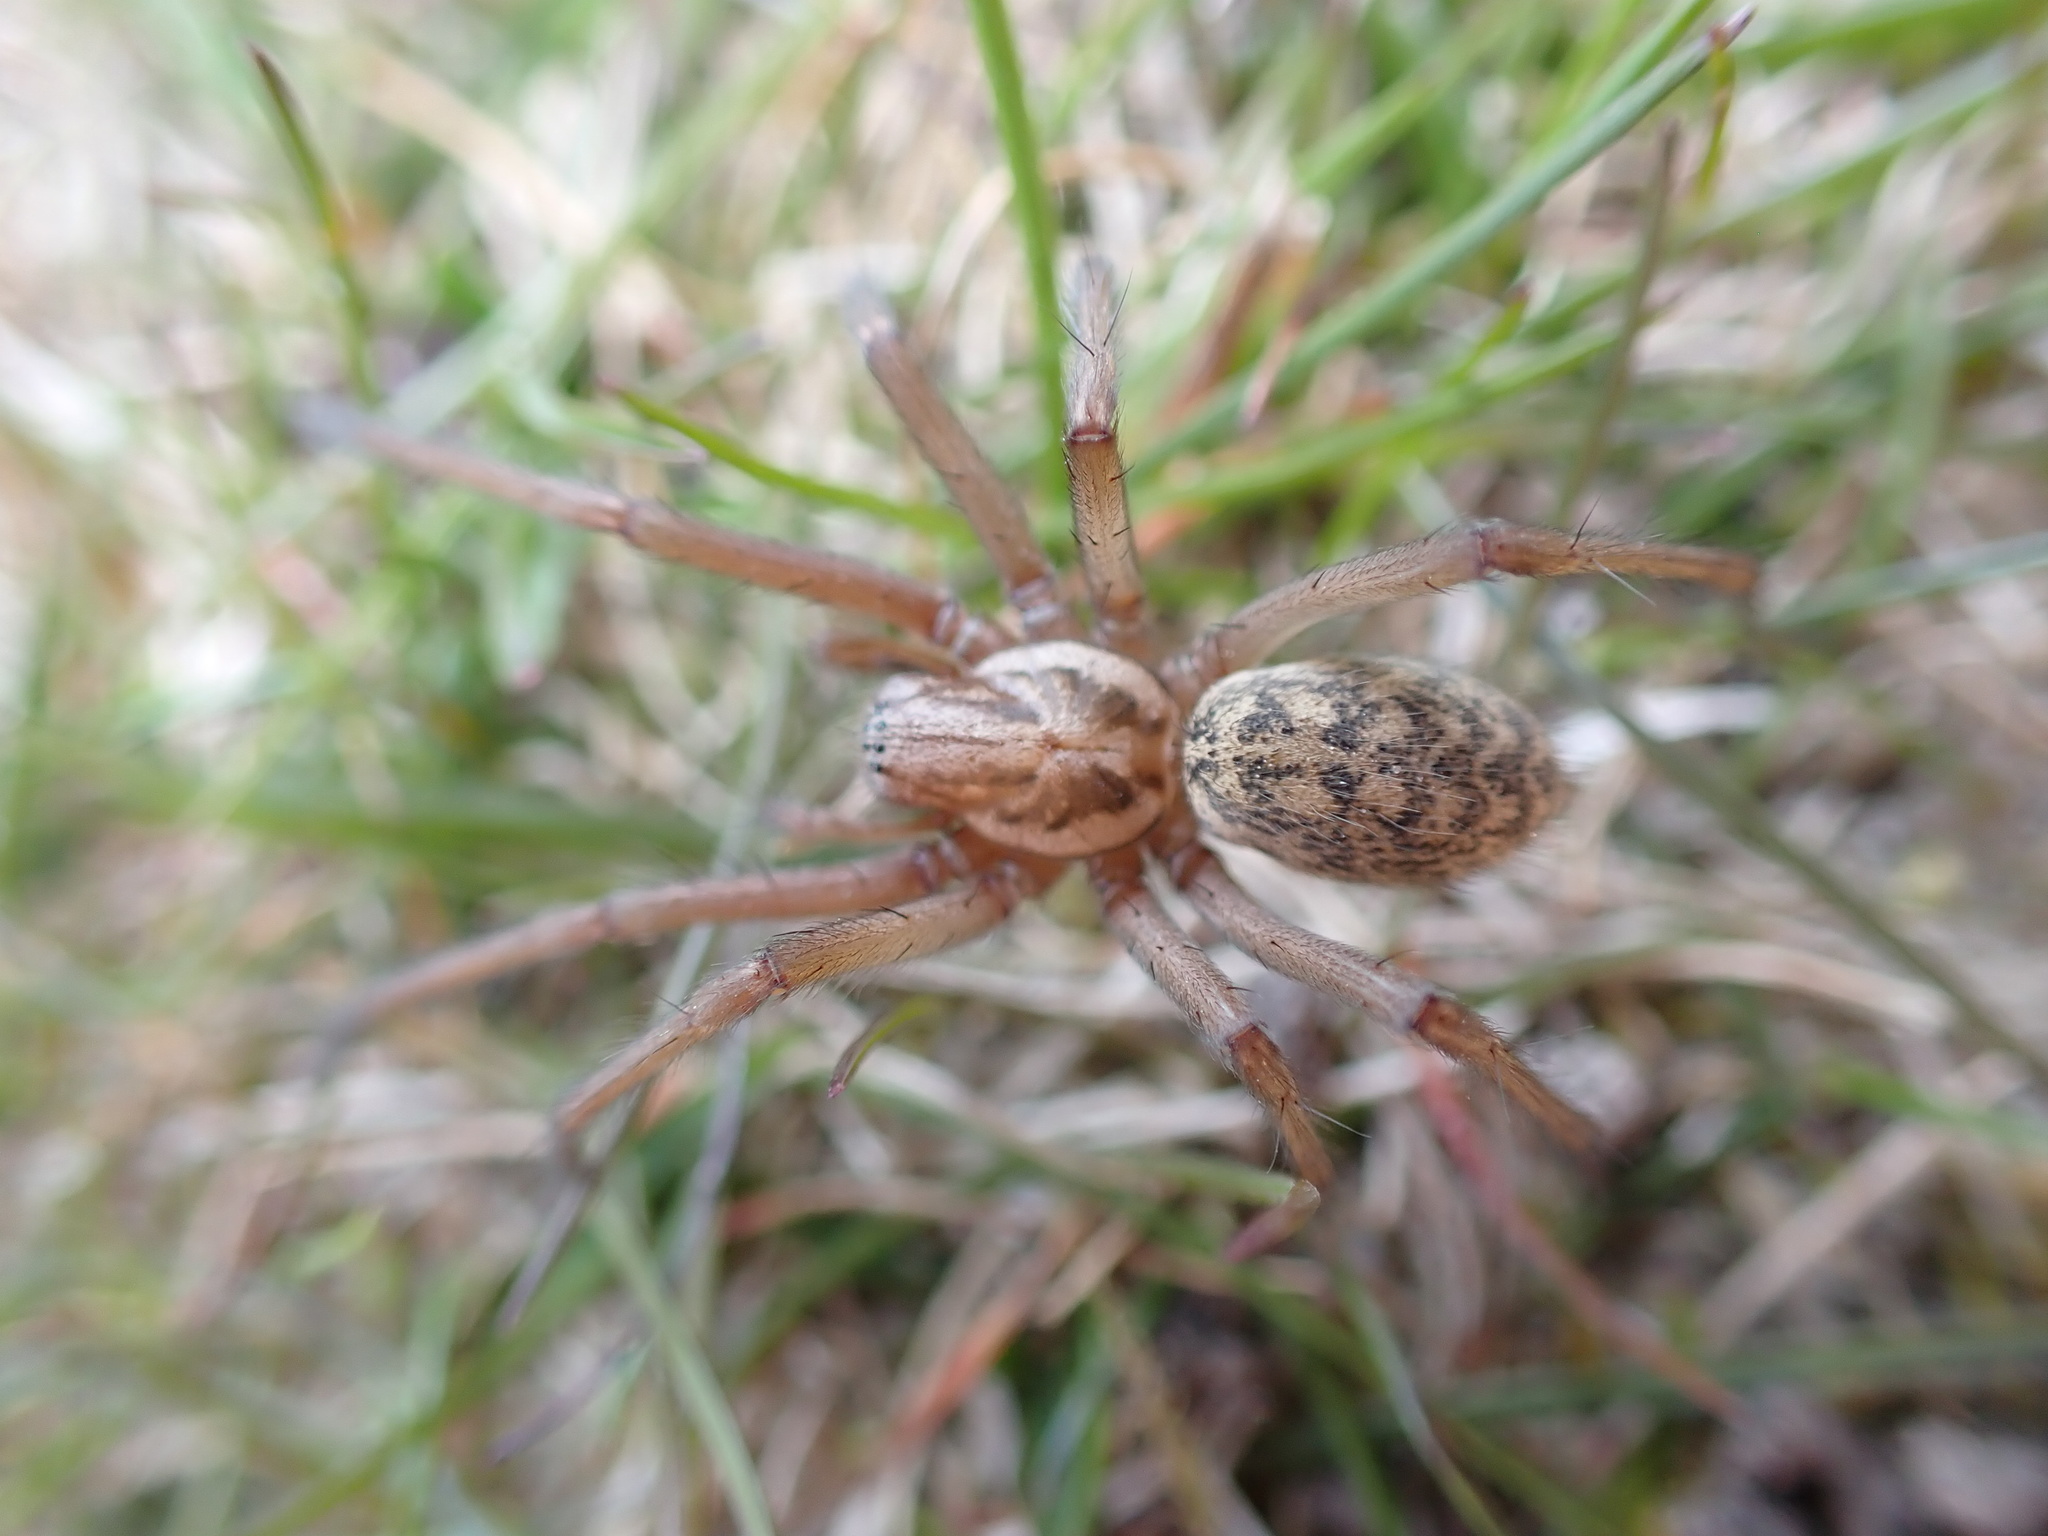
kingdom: Animalia
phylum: Arthropoda
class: Arachnida
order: Araneae
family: Agelenidae
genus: Eratigena
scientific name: Eratigena atrica
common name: Giant house spider
